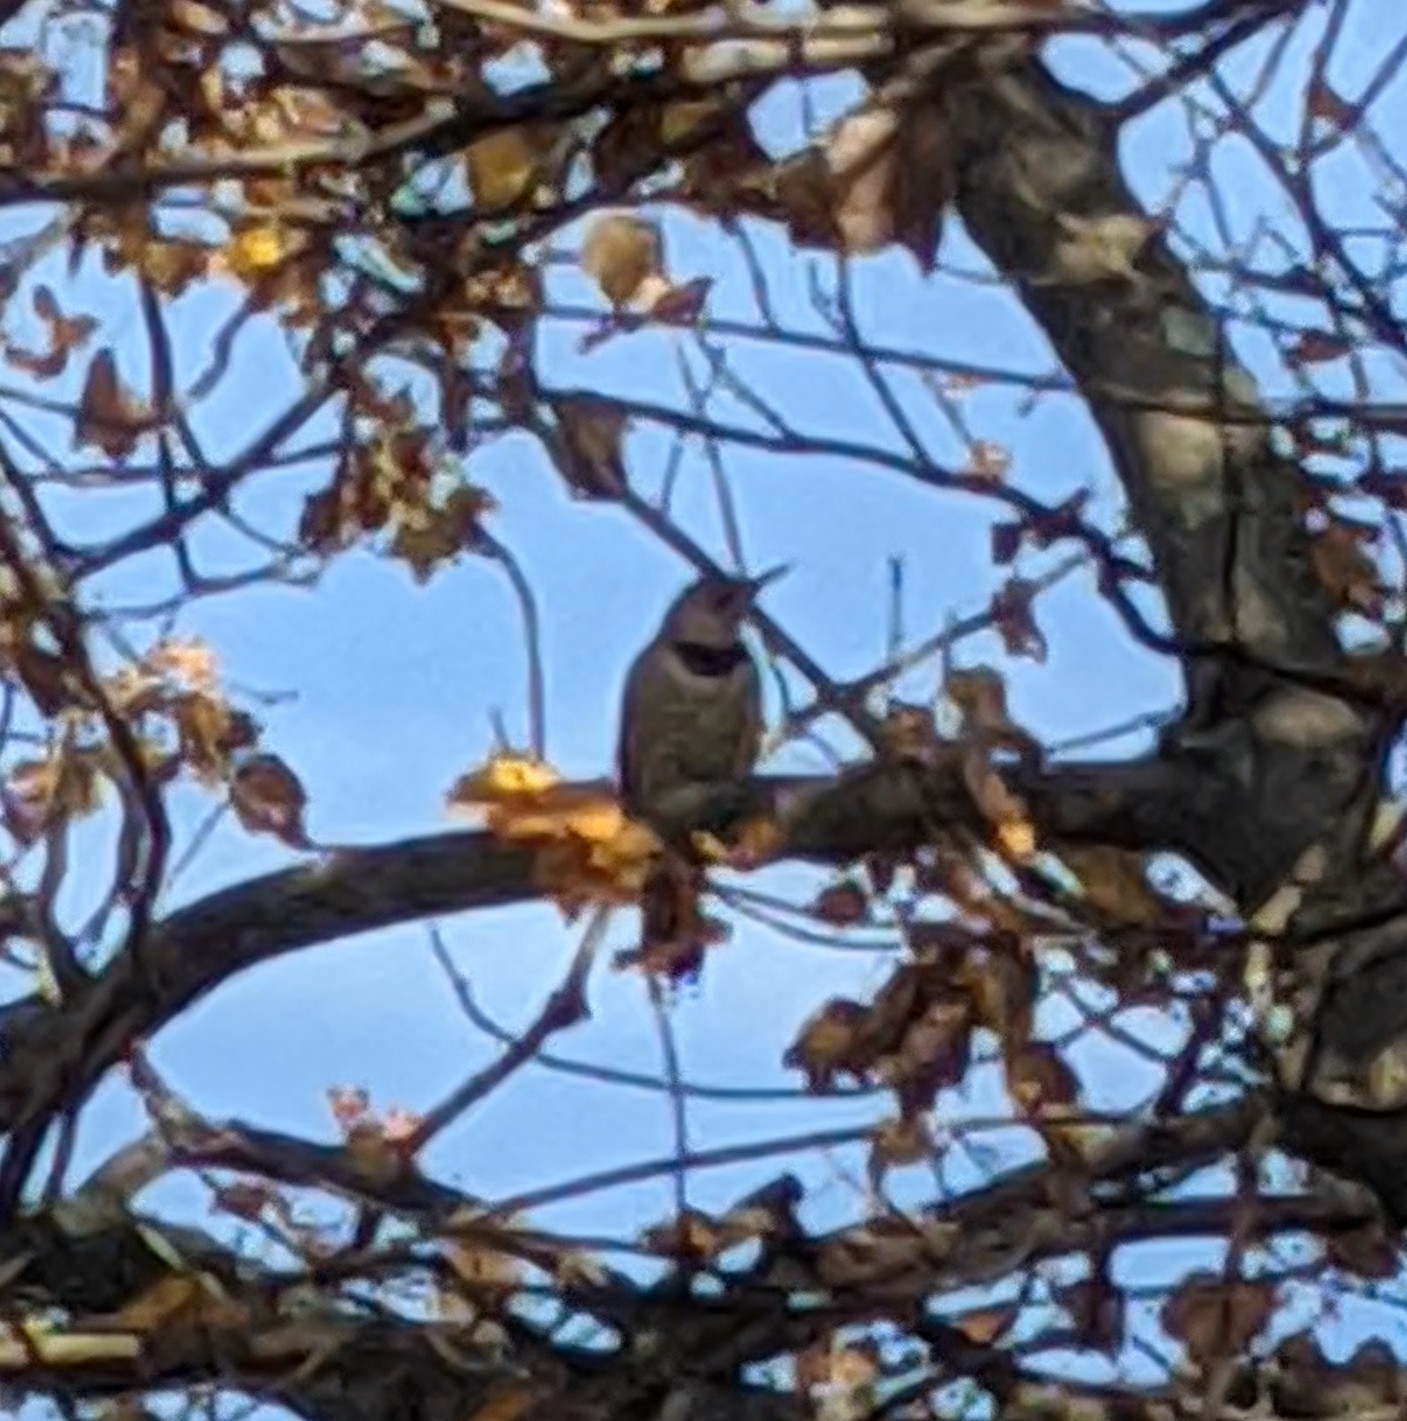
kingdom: Animalia
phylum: Chordata
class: Aves
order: Piciformes
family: Picidae
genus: Colaptes
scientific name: Colaptes auratus
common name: Northern flicker
